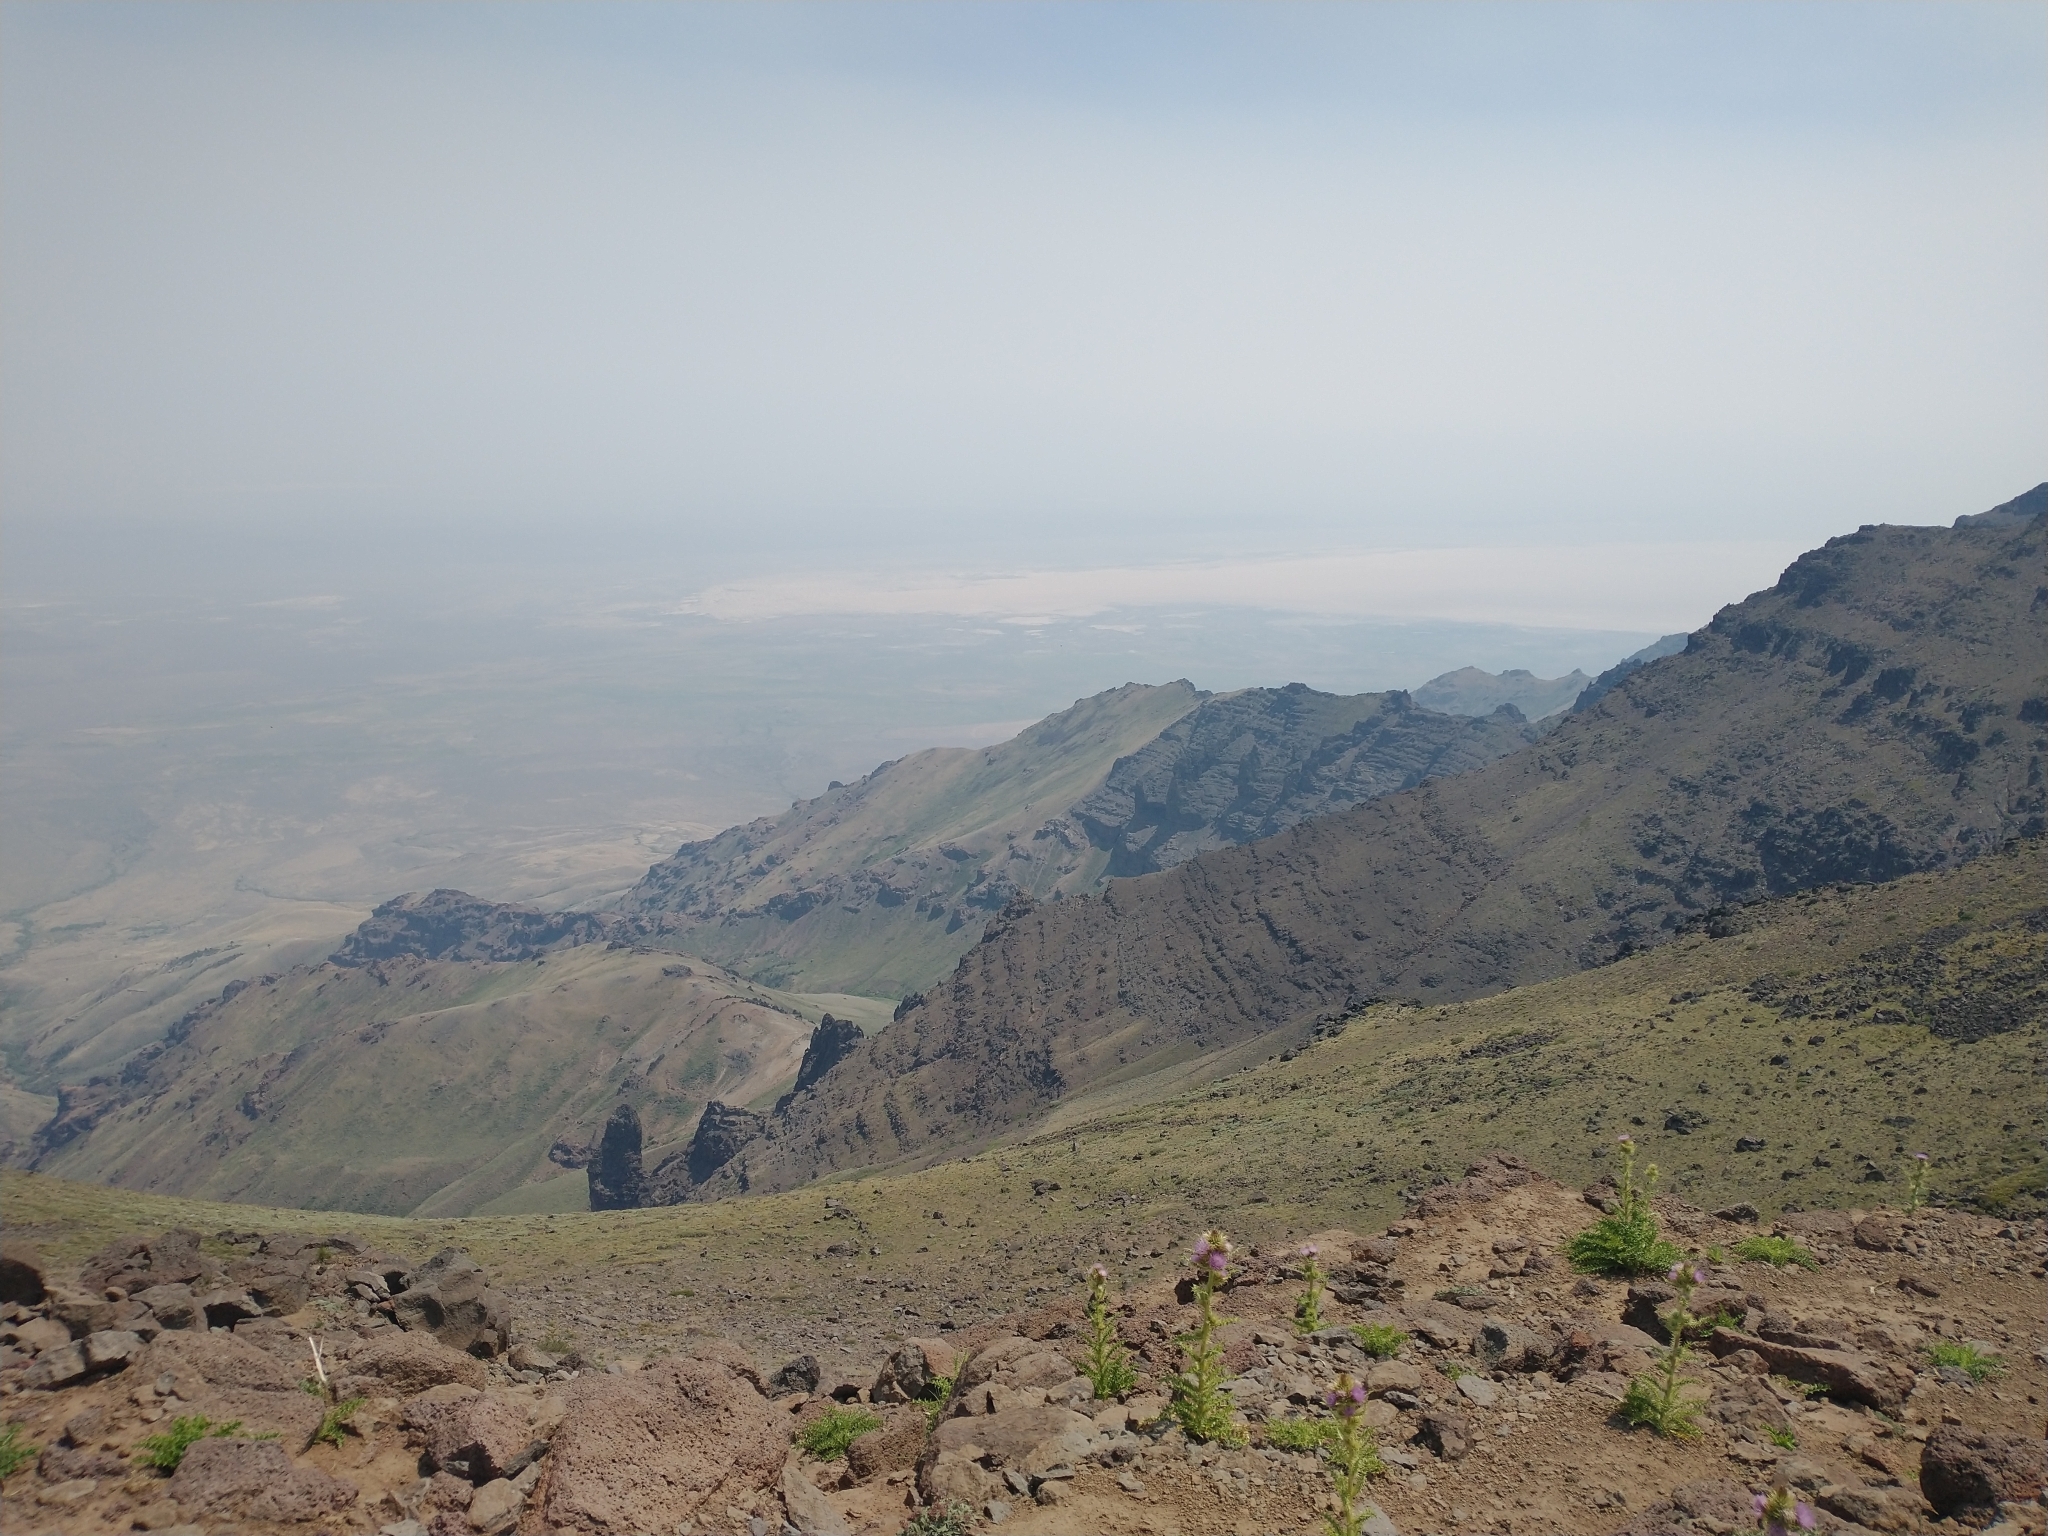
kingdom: Plantae
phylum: Tracheophyta
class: Magnoliopsida
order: Asterales
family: Asteraceae
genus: Cirsium
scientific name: Cirsium peckii
